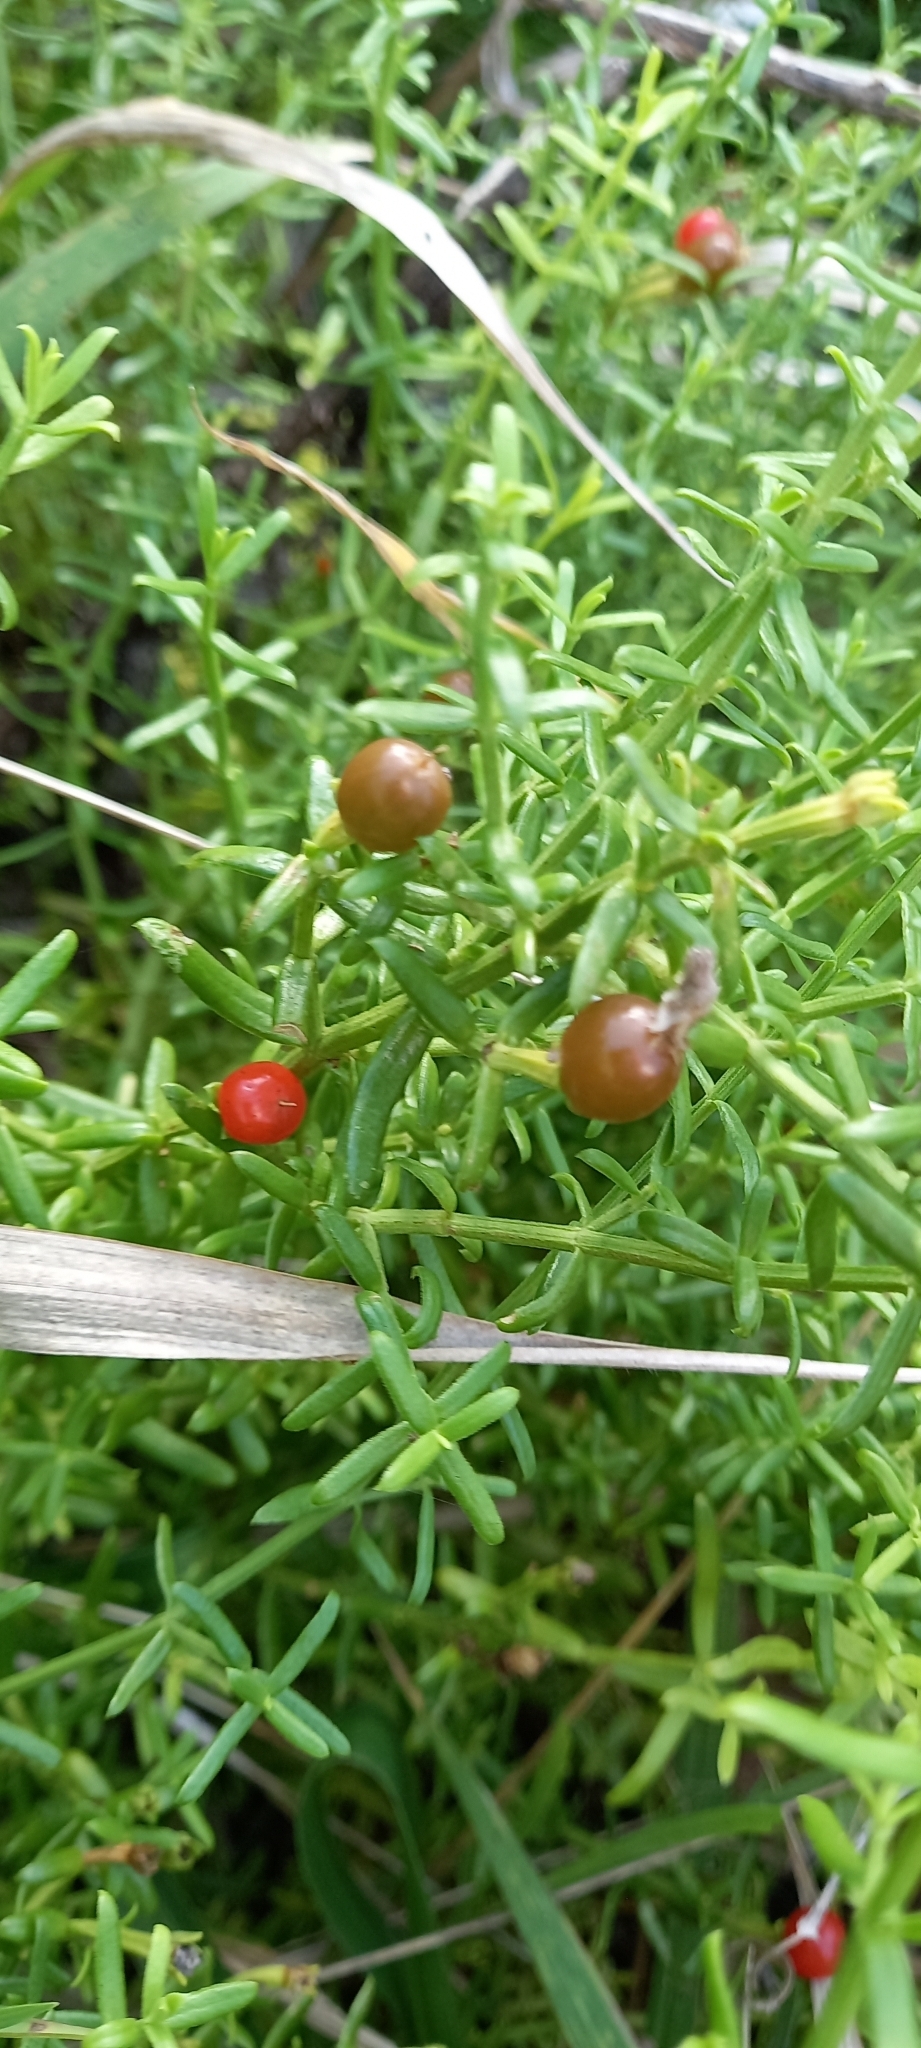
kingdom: Plantae
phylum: Tracheophyta
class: Magnoliopsida
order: Gentianales
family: Gentianaceae
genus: Chironia
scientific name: Chironia baccifera
